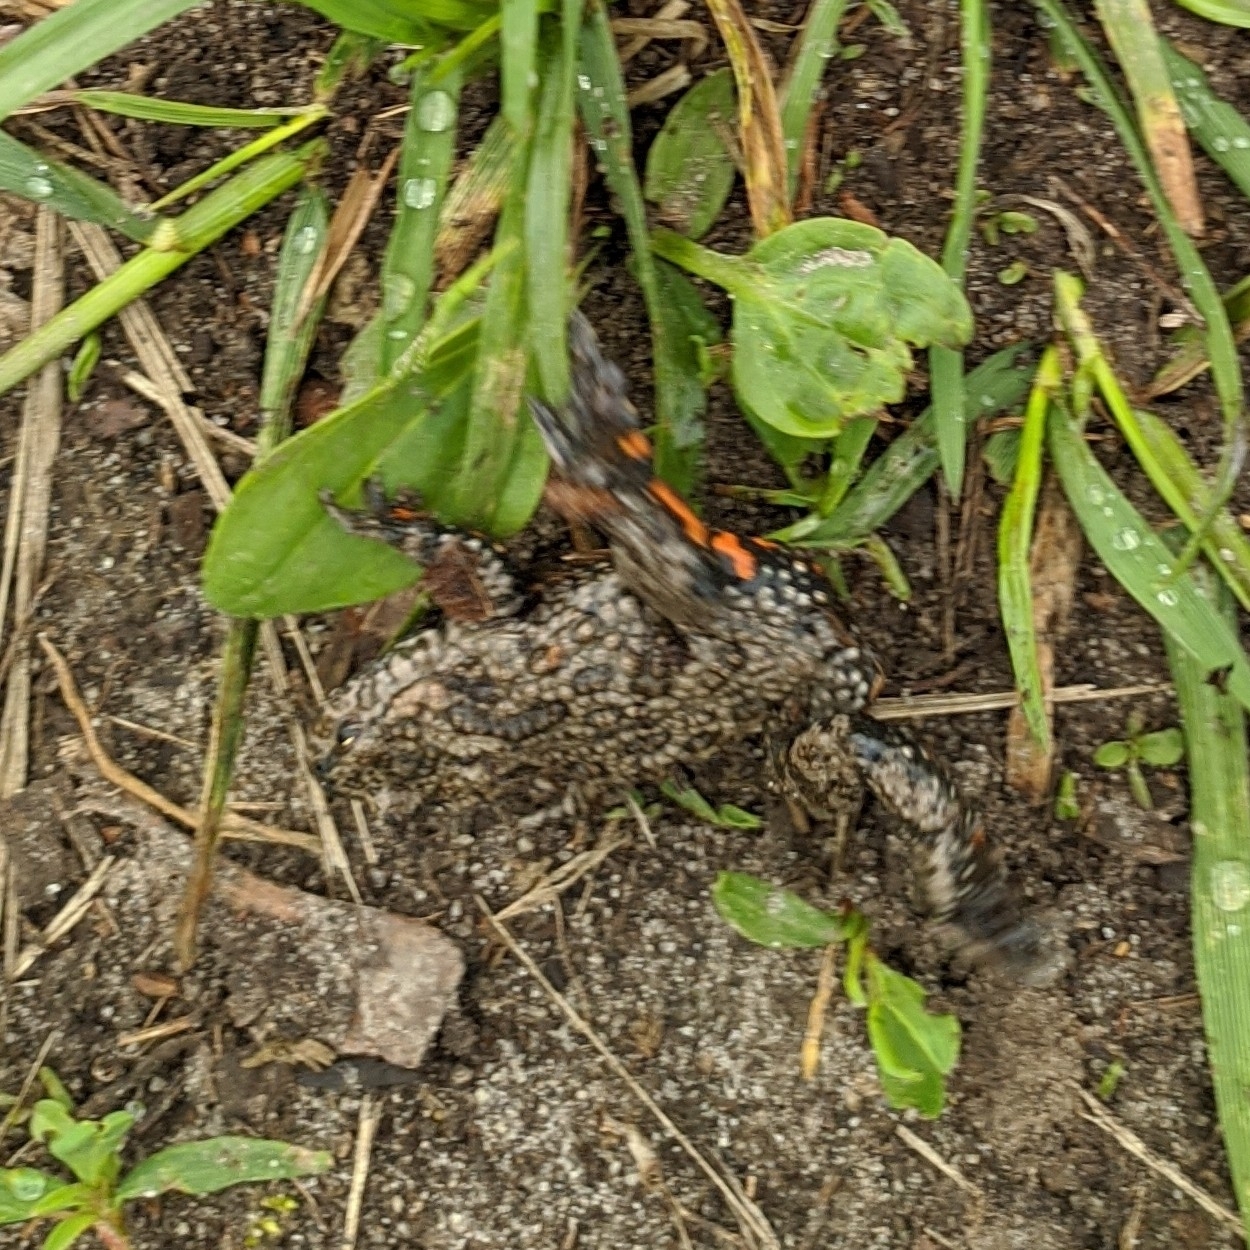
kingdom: Animalia
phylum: Chordata
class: Amphibia
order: Anura
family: Bombinatoridae
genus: Bombina
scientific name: Bombina bombina
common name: Fire-bellied toad
